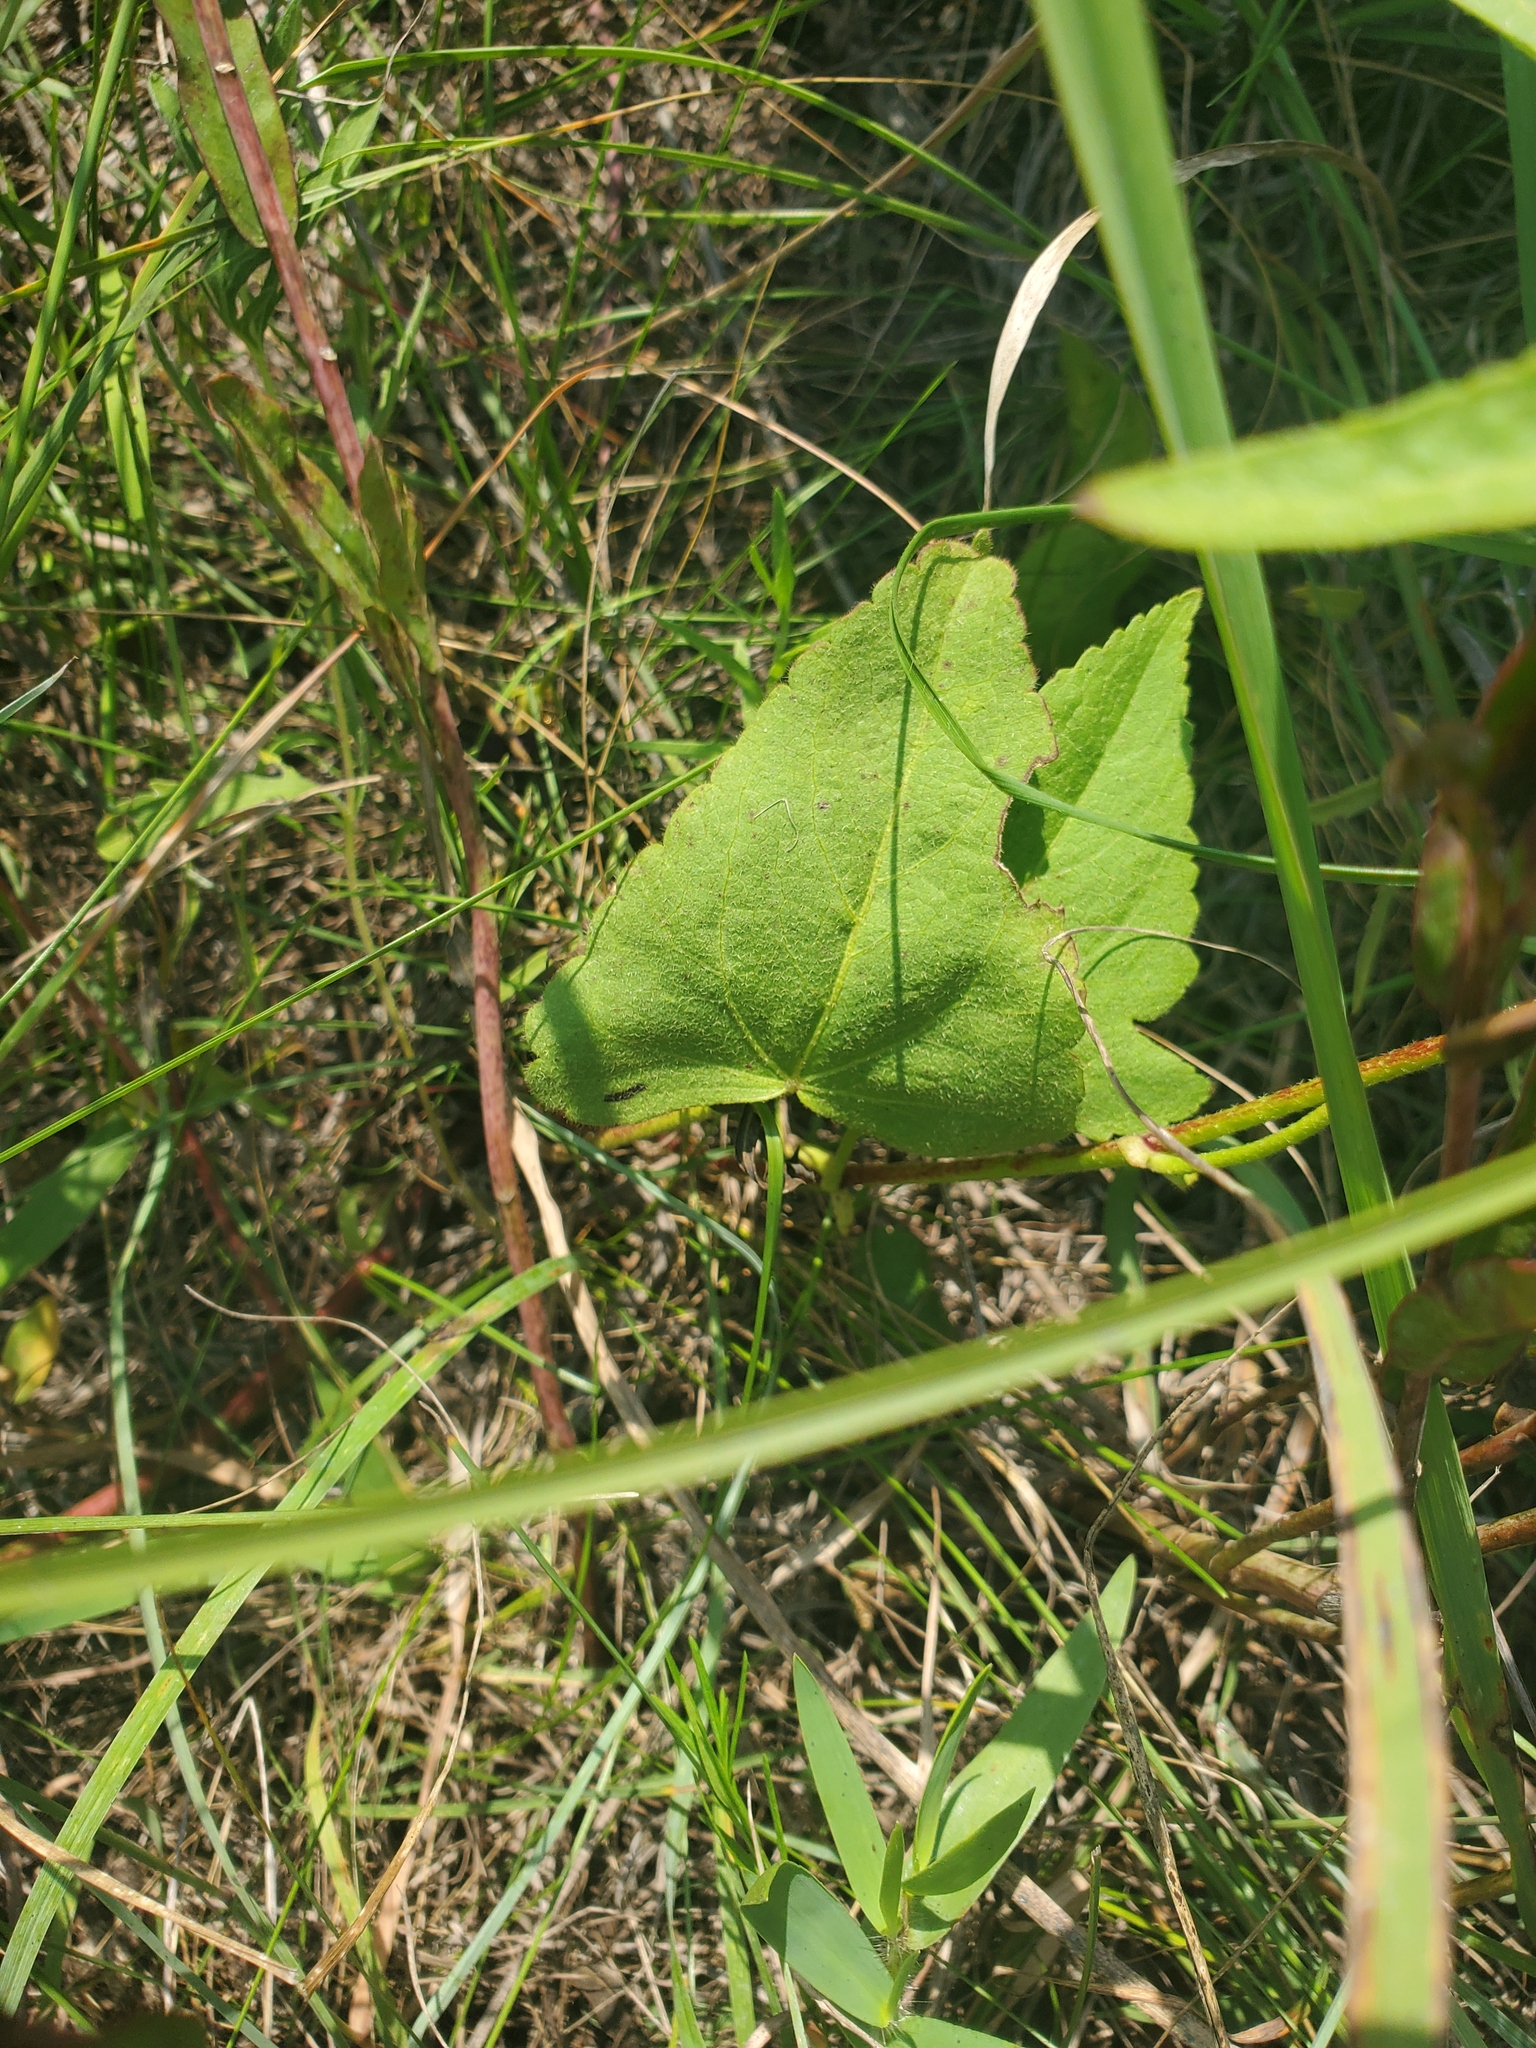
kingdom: Plantae
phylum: Tracheophyta
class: Magnoliopsida
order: Malvales
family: Malvaceae
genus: Callirhoe
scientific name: Callirhoe triangulata
